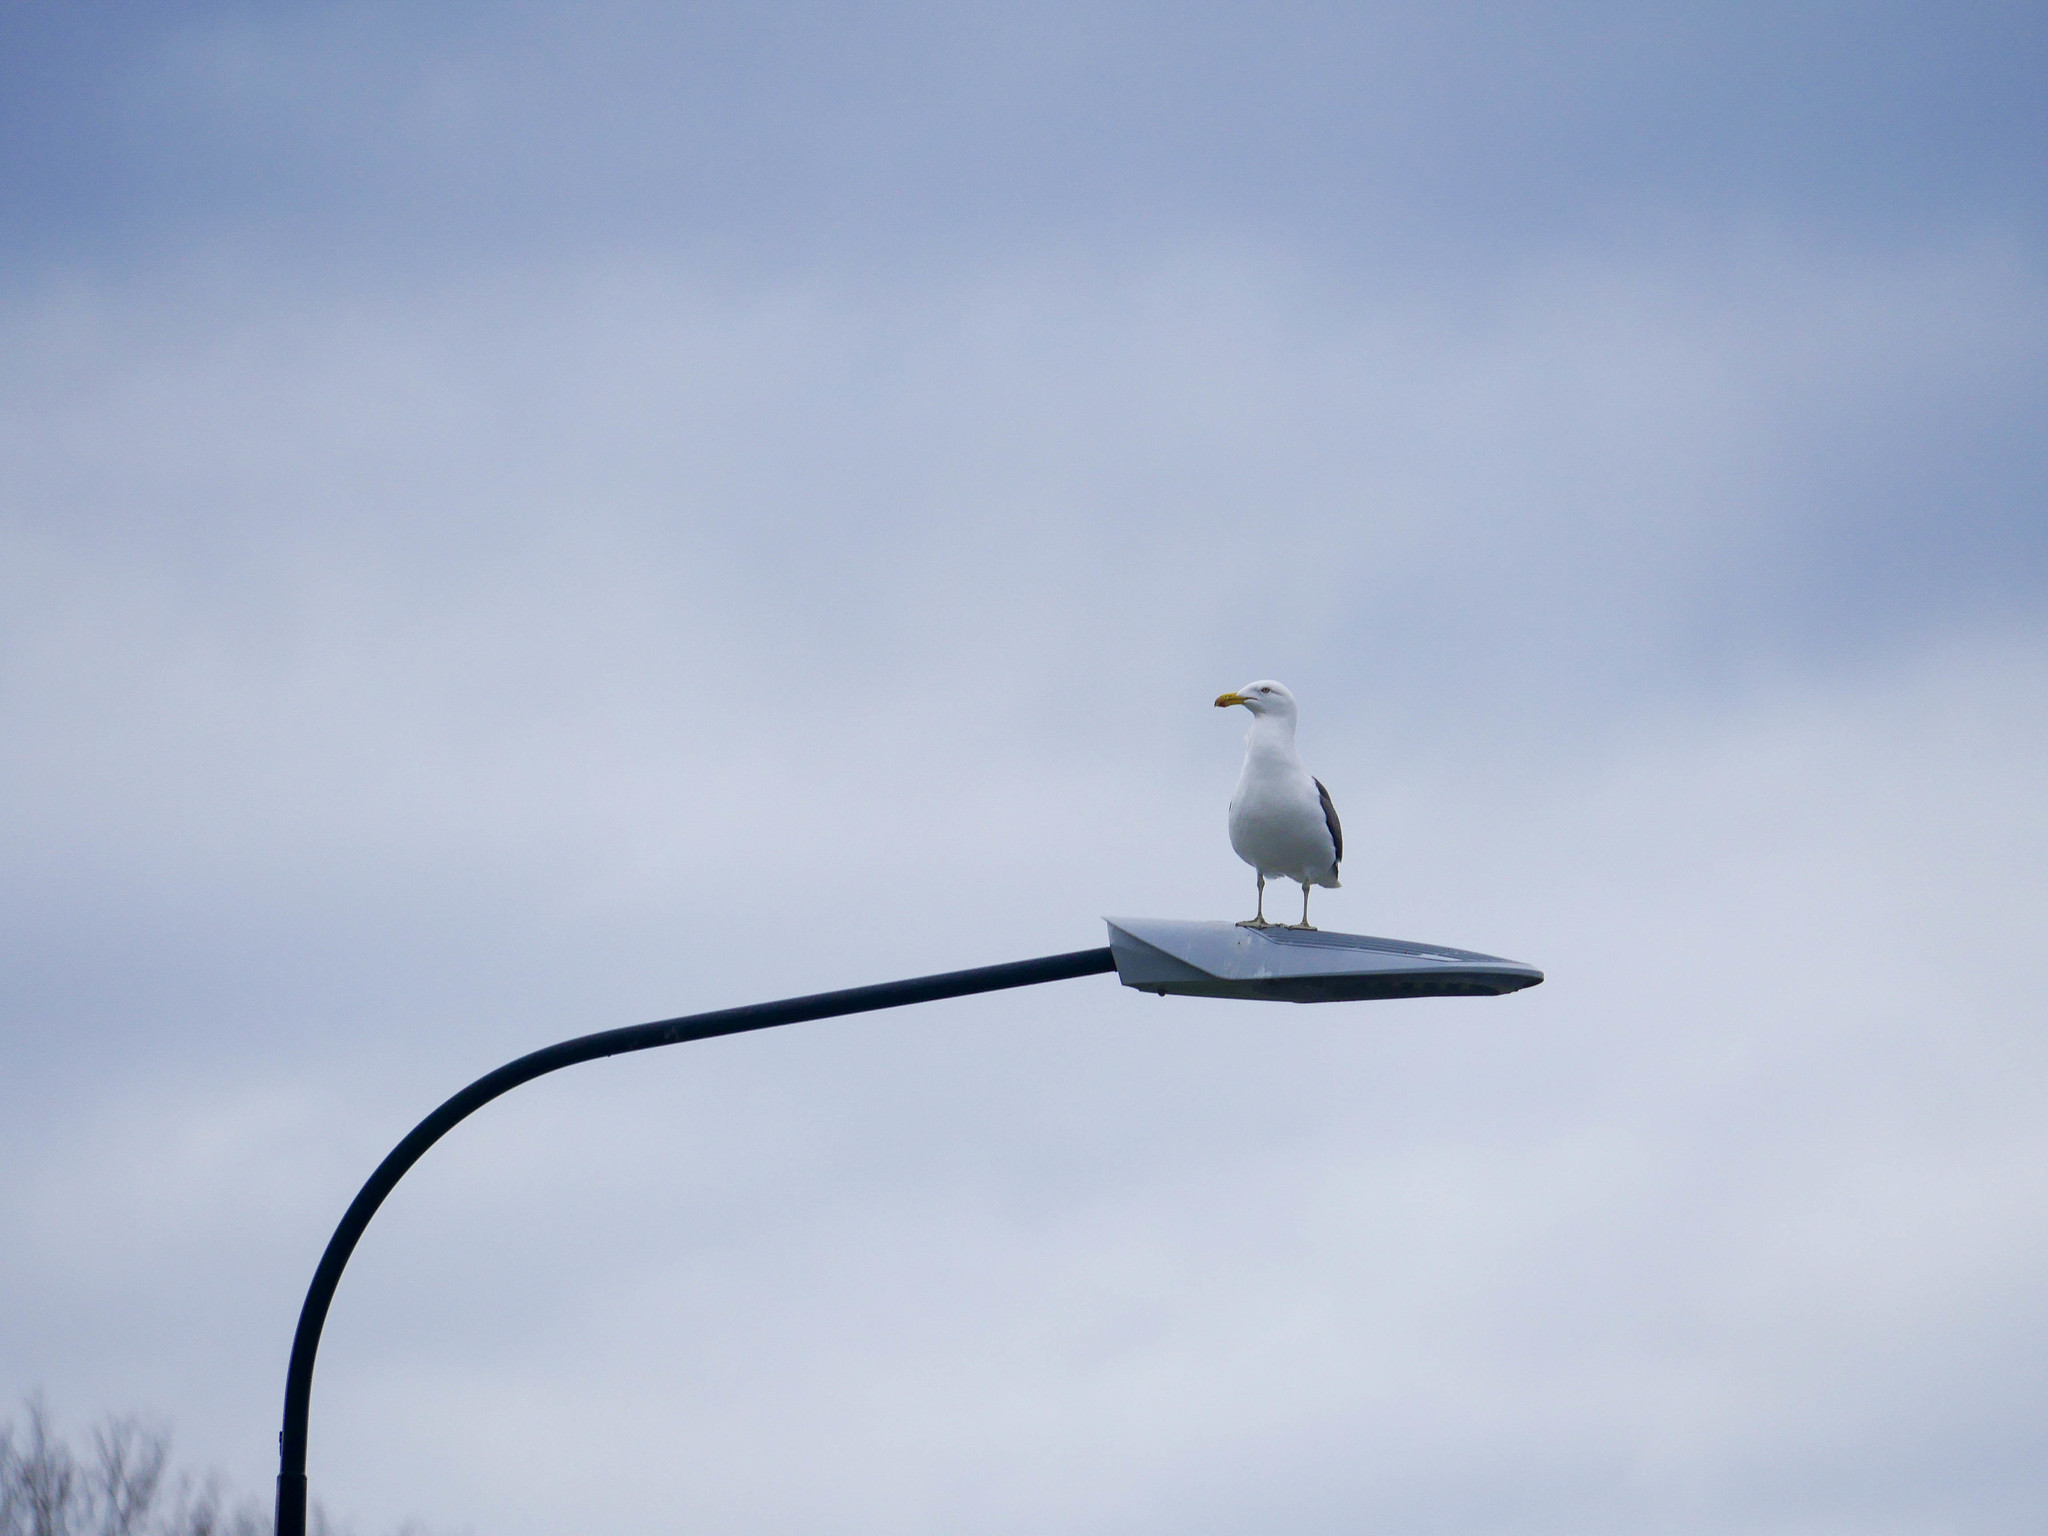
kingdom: Animalia
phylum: Chordata
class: Aves
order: Charadriiformes
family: Laridae
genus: Larus
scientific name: Larus dominicanus
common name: Kelp gull
